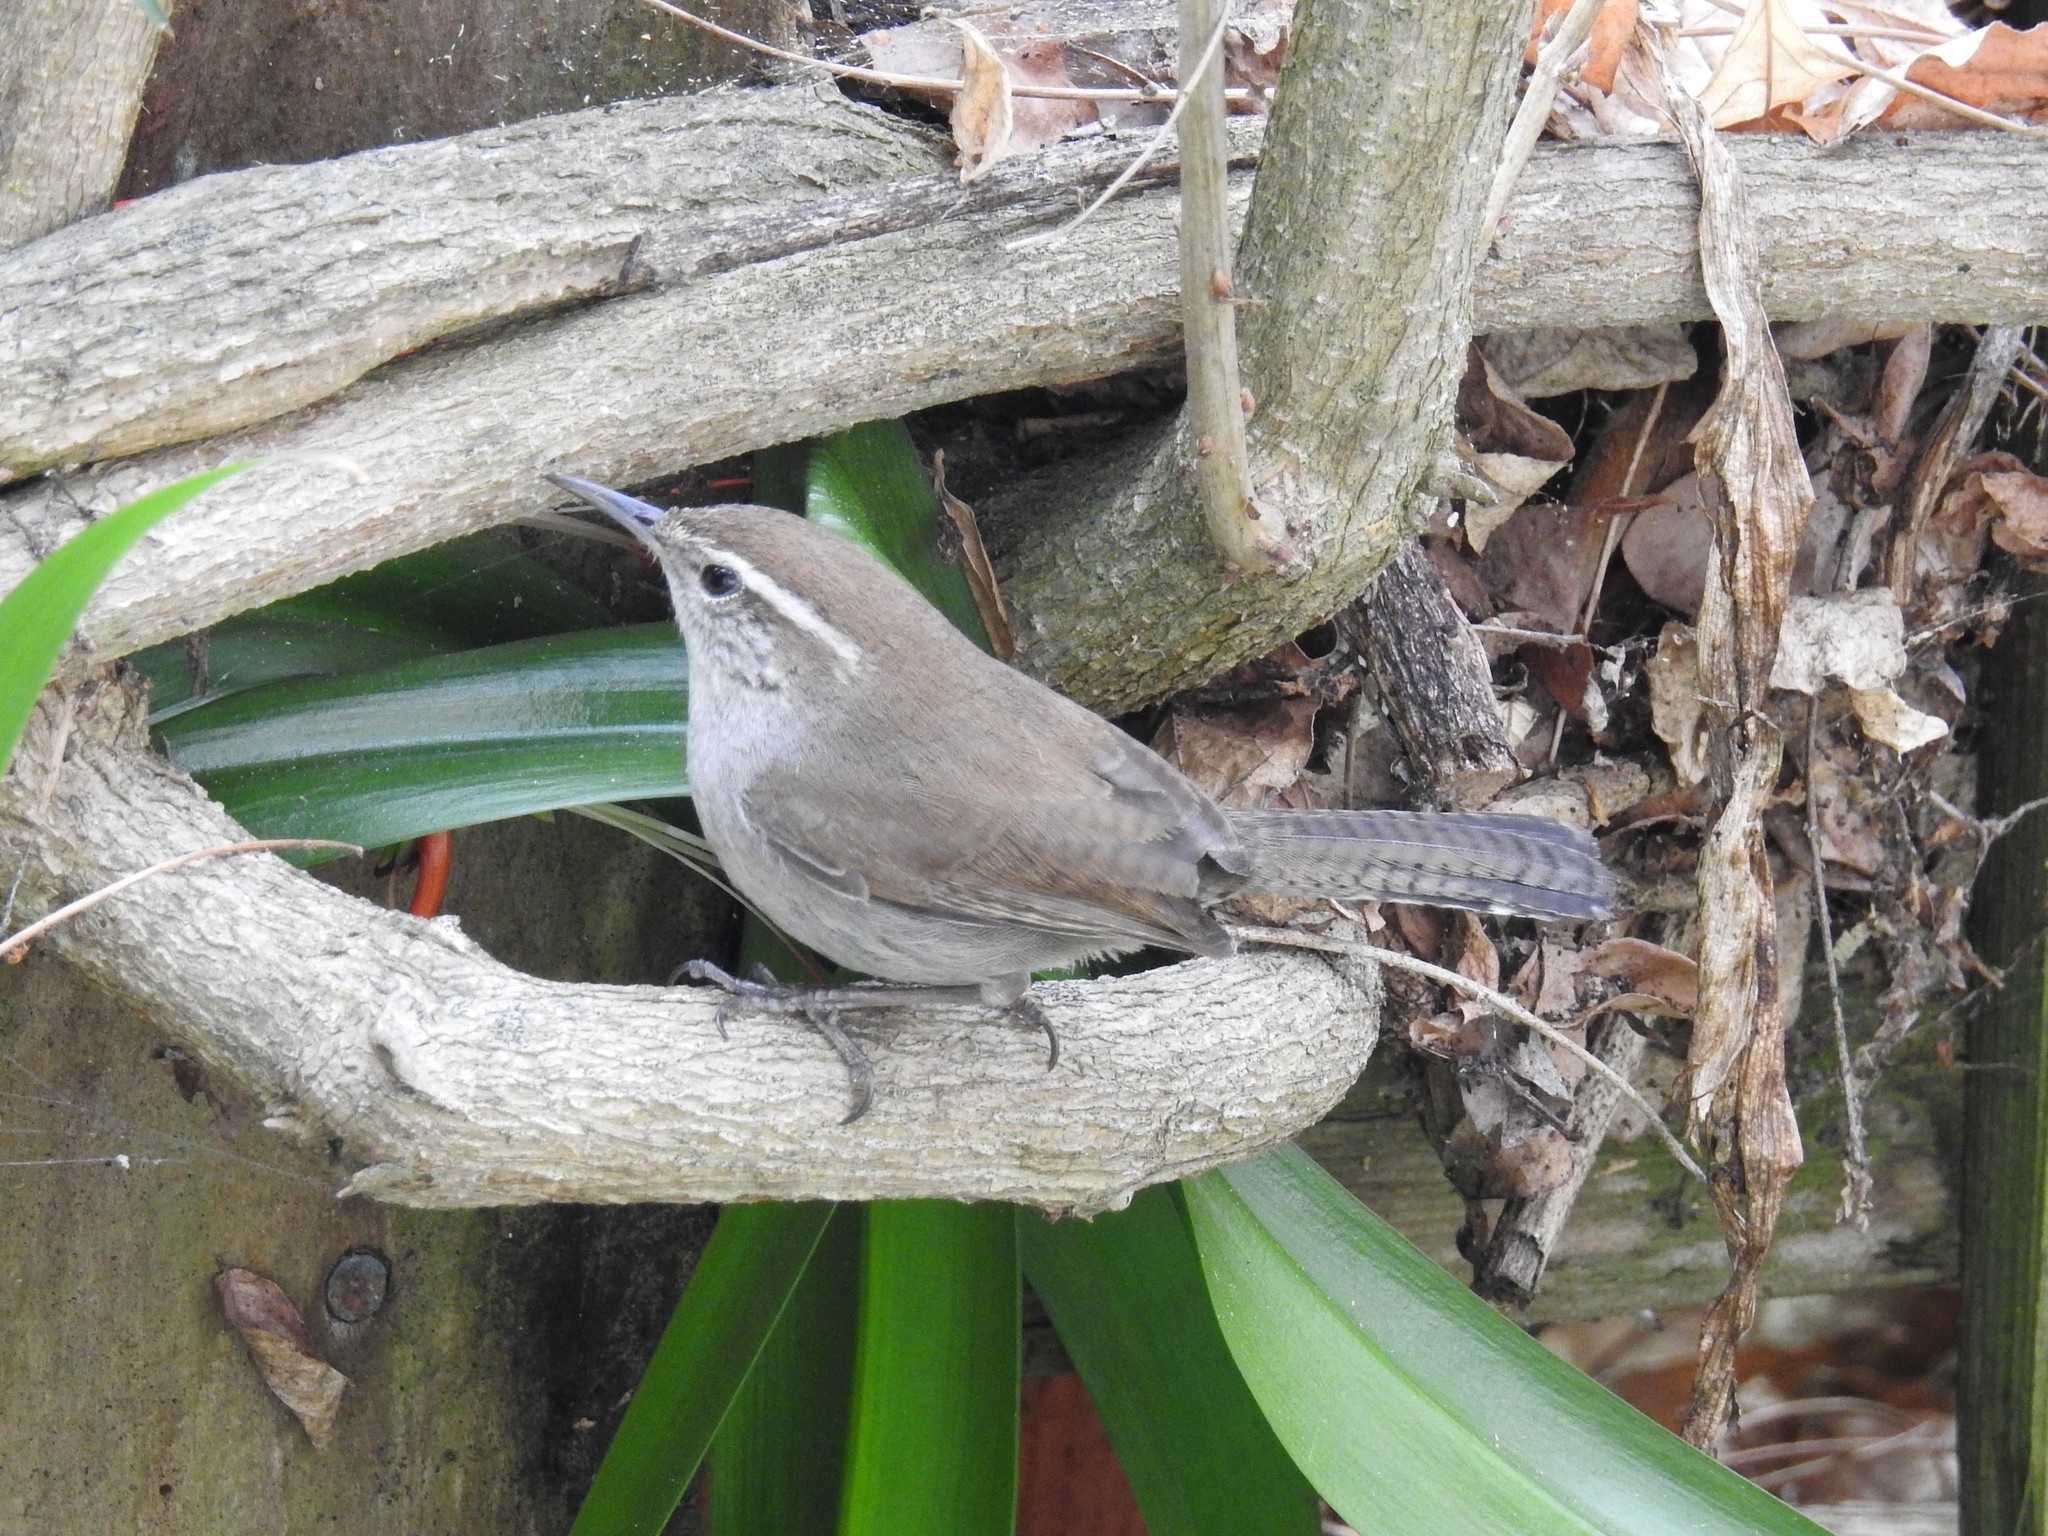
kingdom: Animalia
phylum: Chordata
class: Aves
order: Passeriformes
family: Troglodytidae
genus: Thryomanes
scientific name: Thryomanes bewickii
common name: Bewick's wren
